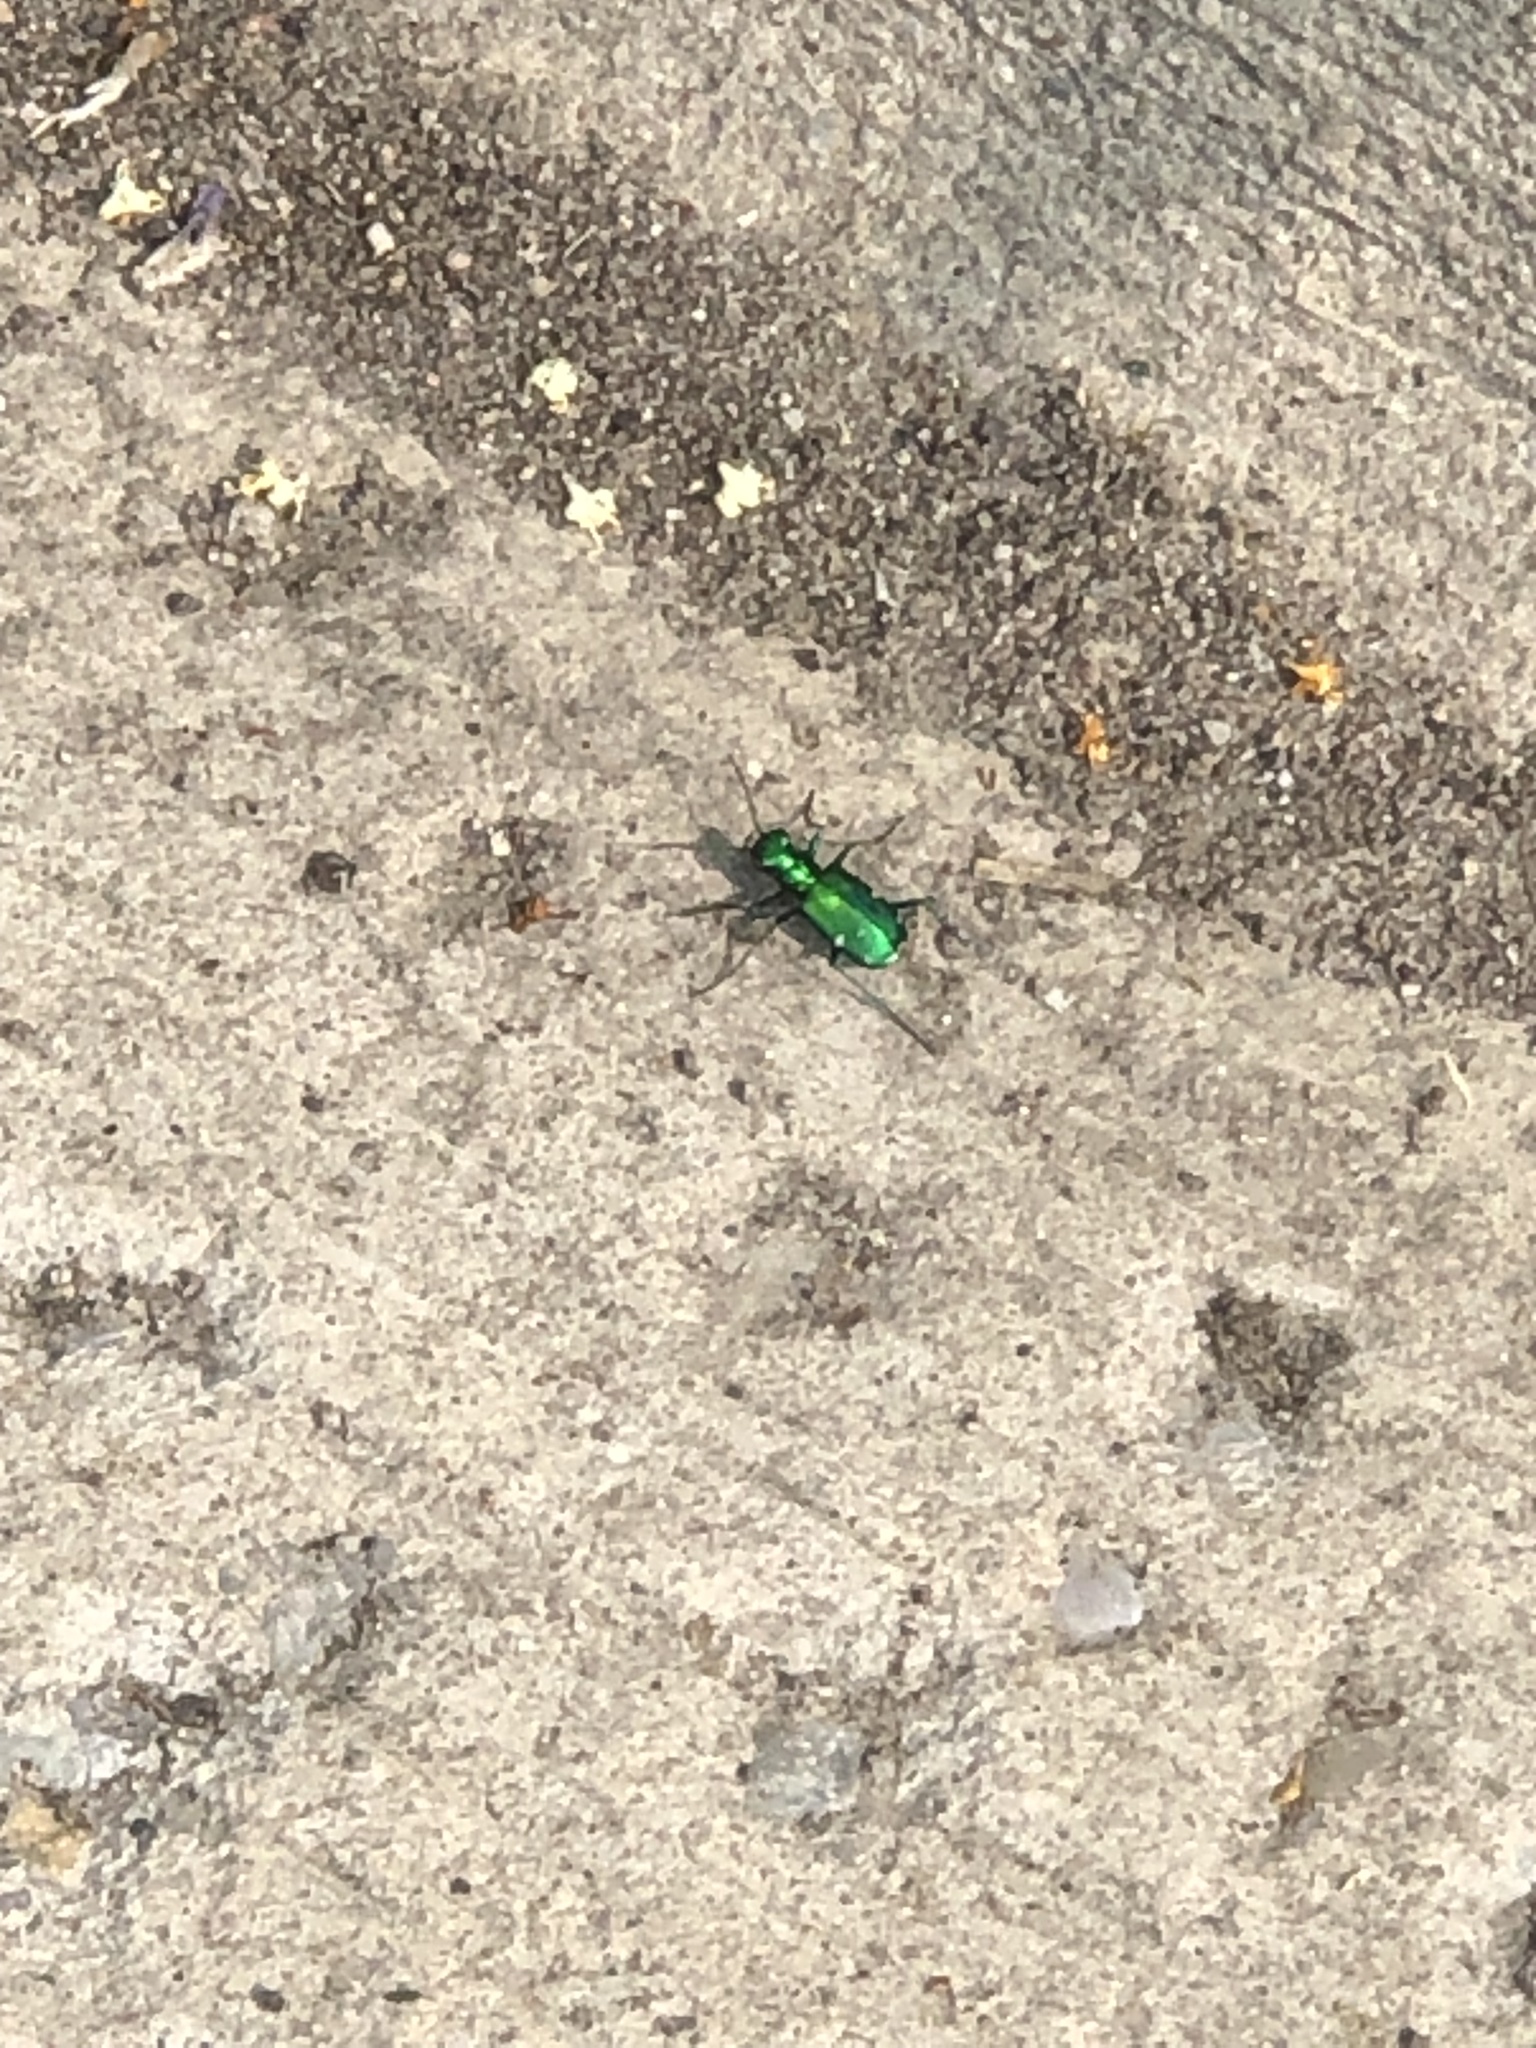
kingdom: Animalia
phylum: Arthropoda
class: Insecta
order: Coleoptera
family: Carabidae
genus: Cicindela
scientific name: Cicindela sexguttata
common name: Six-spotted tiger beetle
